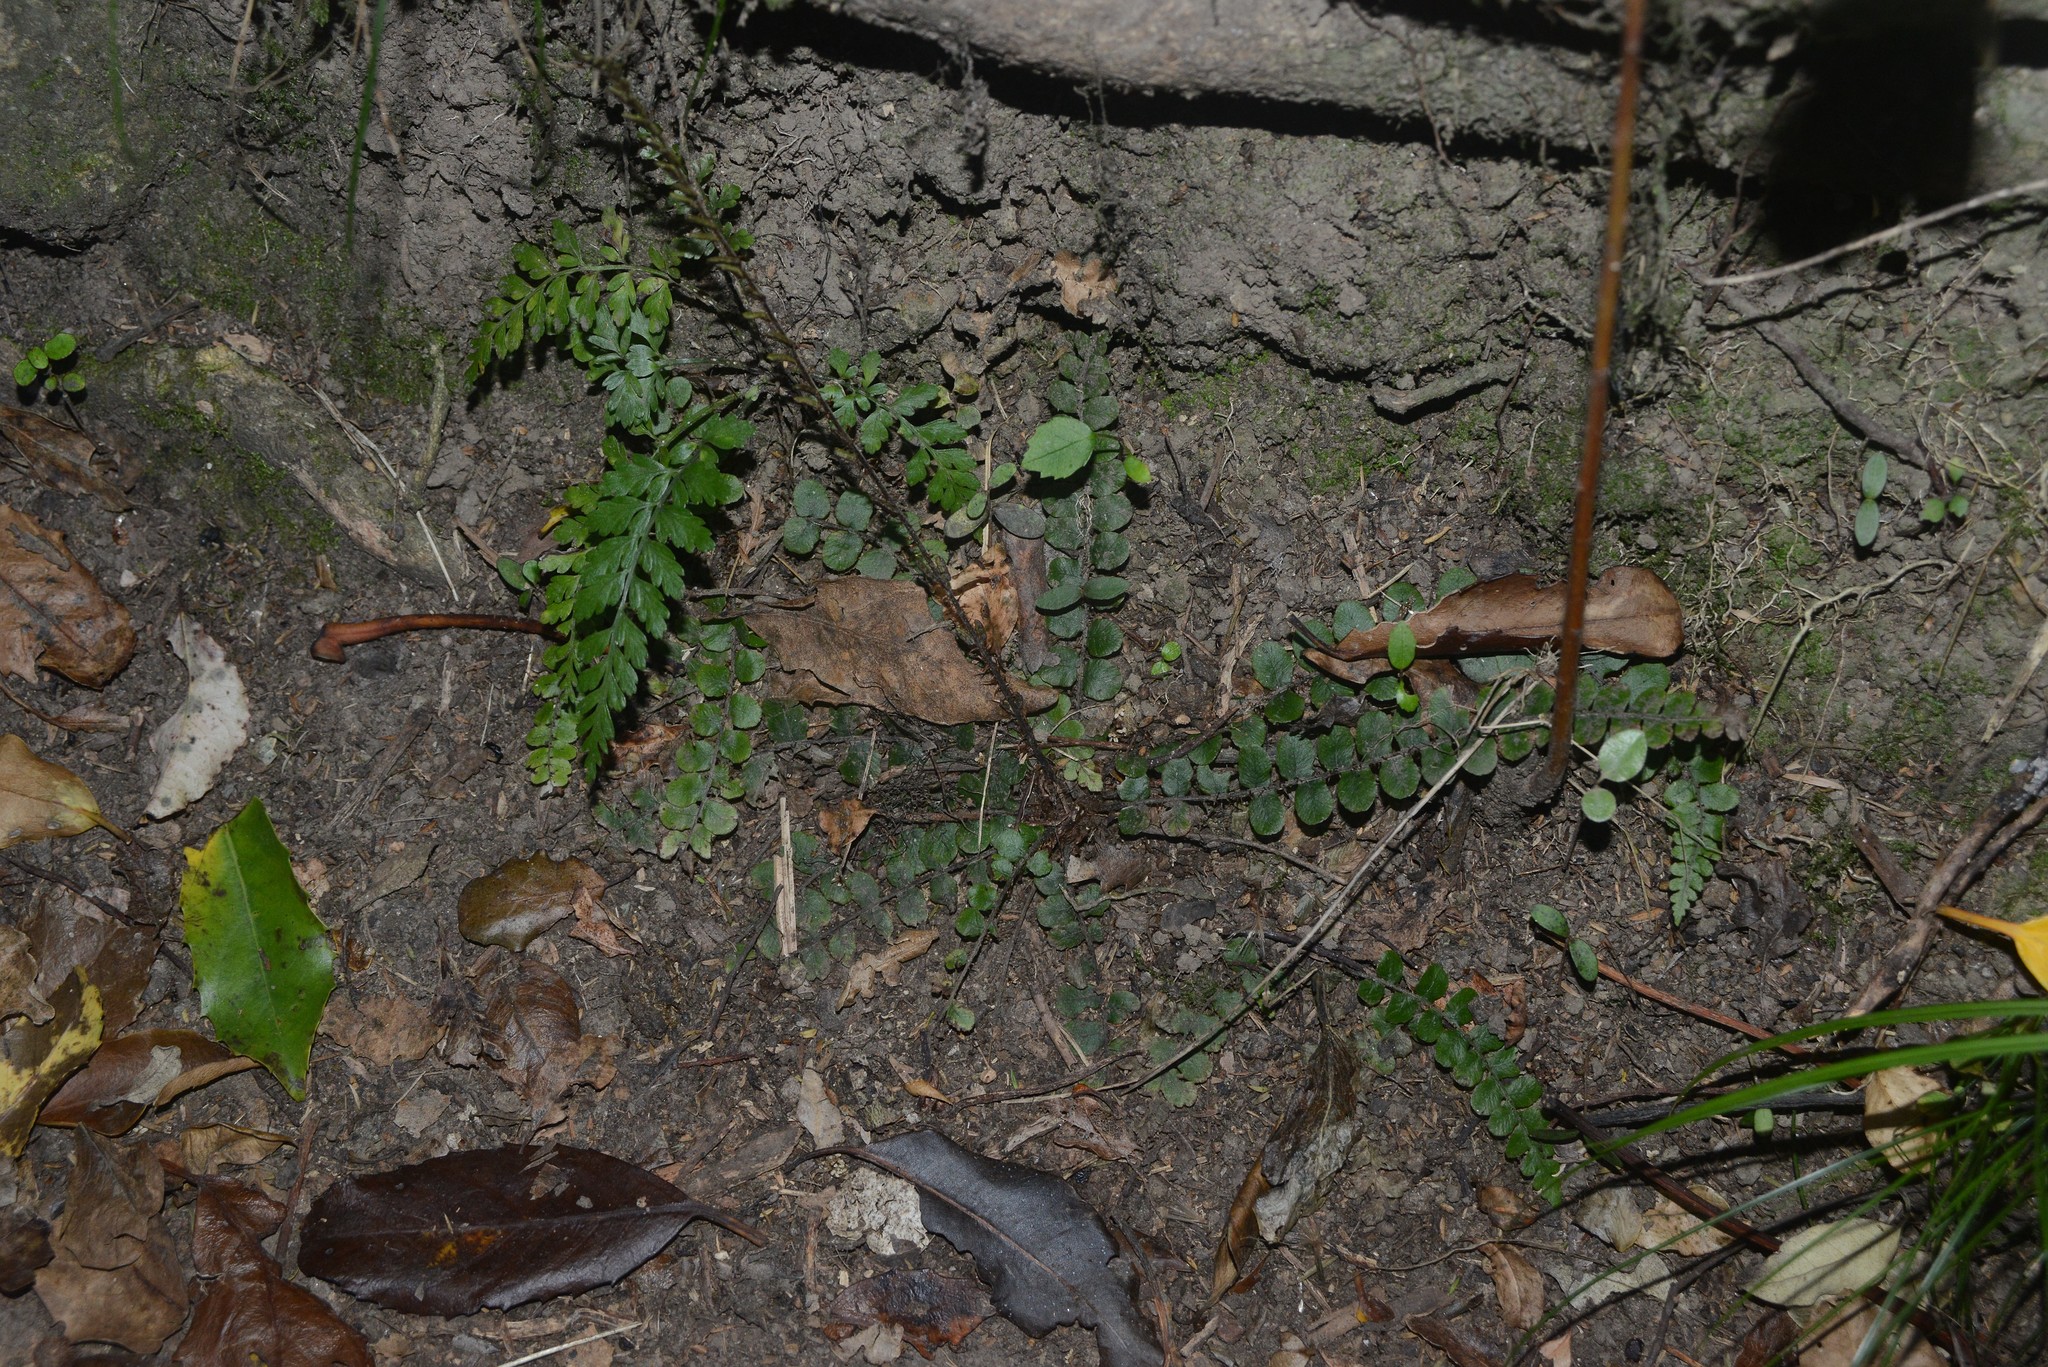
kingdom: Plantae
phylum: Tracheophyta
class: Polypodiopsida
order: Polypodiales
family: Blechnaceae
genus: Cranfillia
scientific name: Cranfillia fluviatilis
